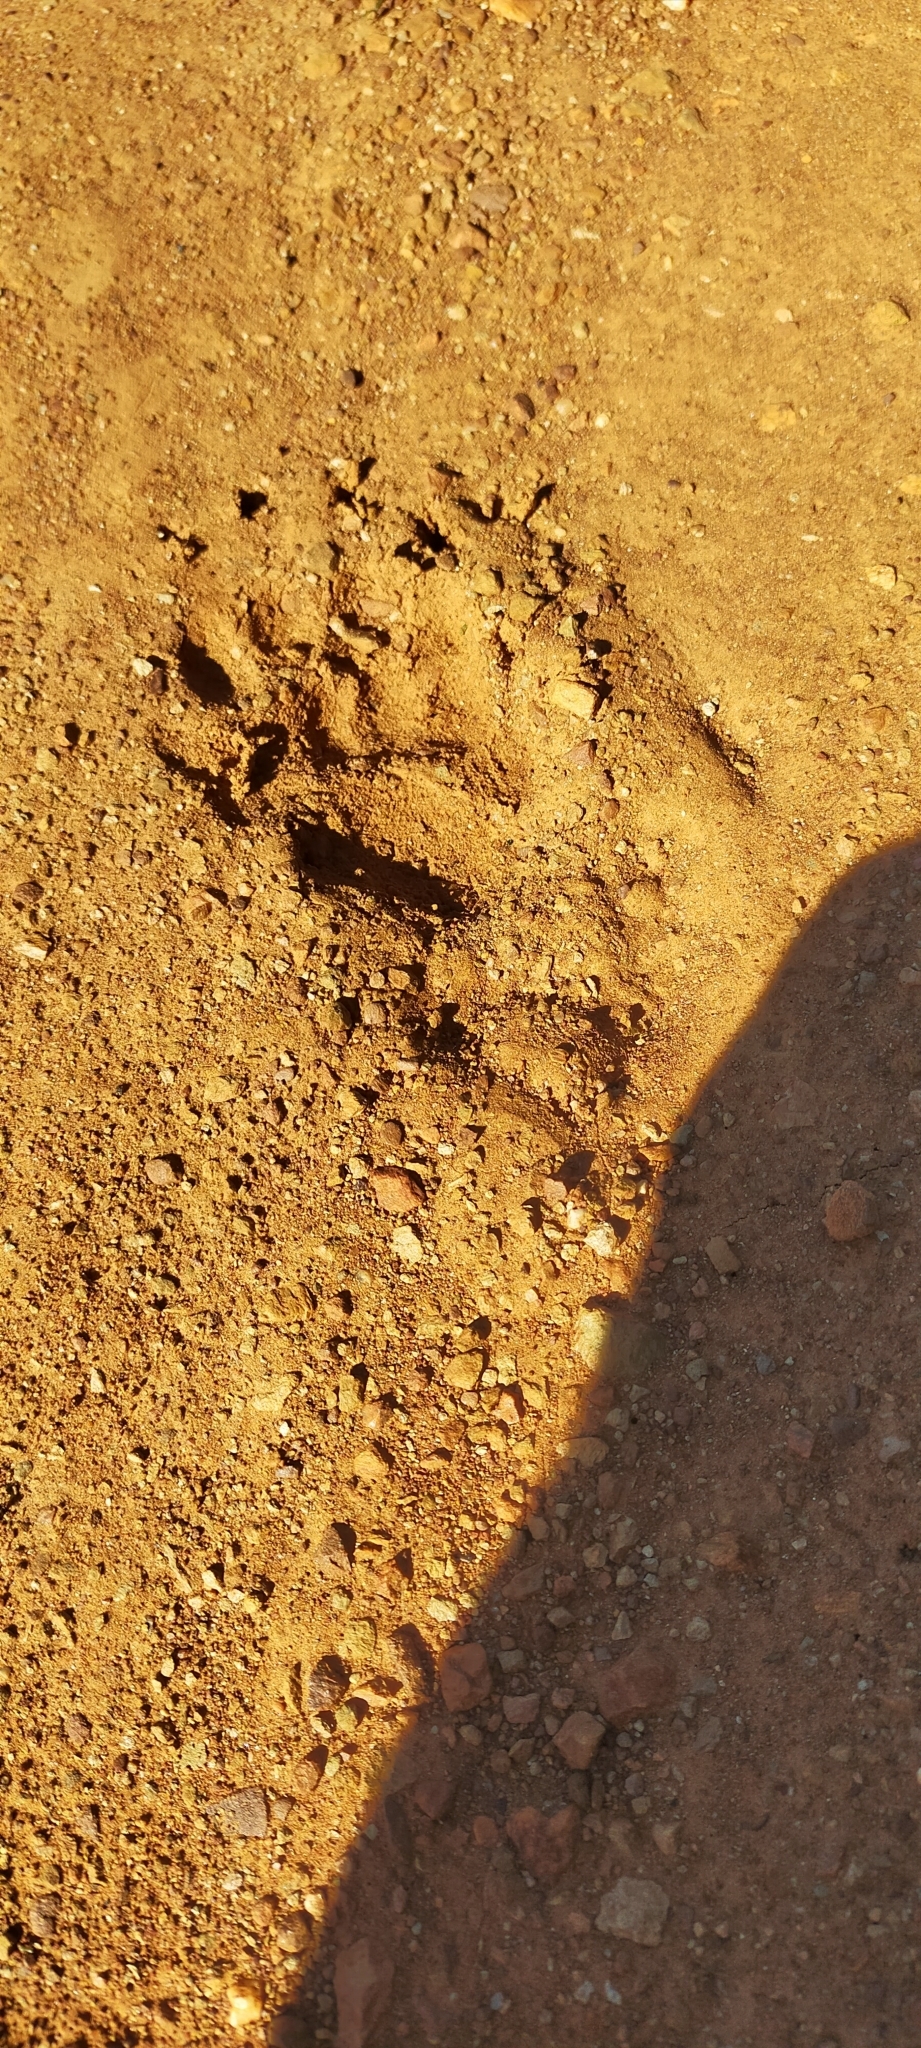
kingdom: Animalia
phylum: Chordata
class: Mammalia
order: Carnivora
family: Mustelidae
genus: Meles
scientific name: Meles meles
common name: Eurasian badger
